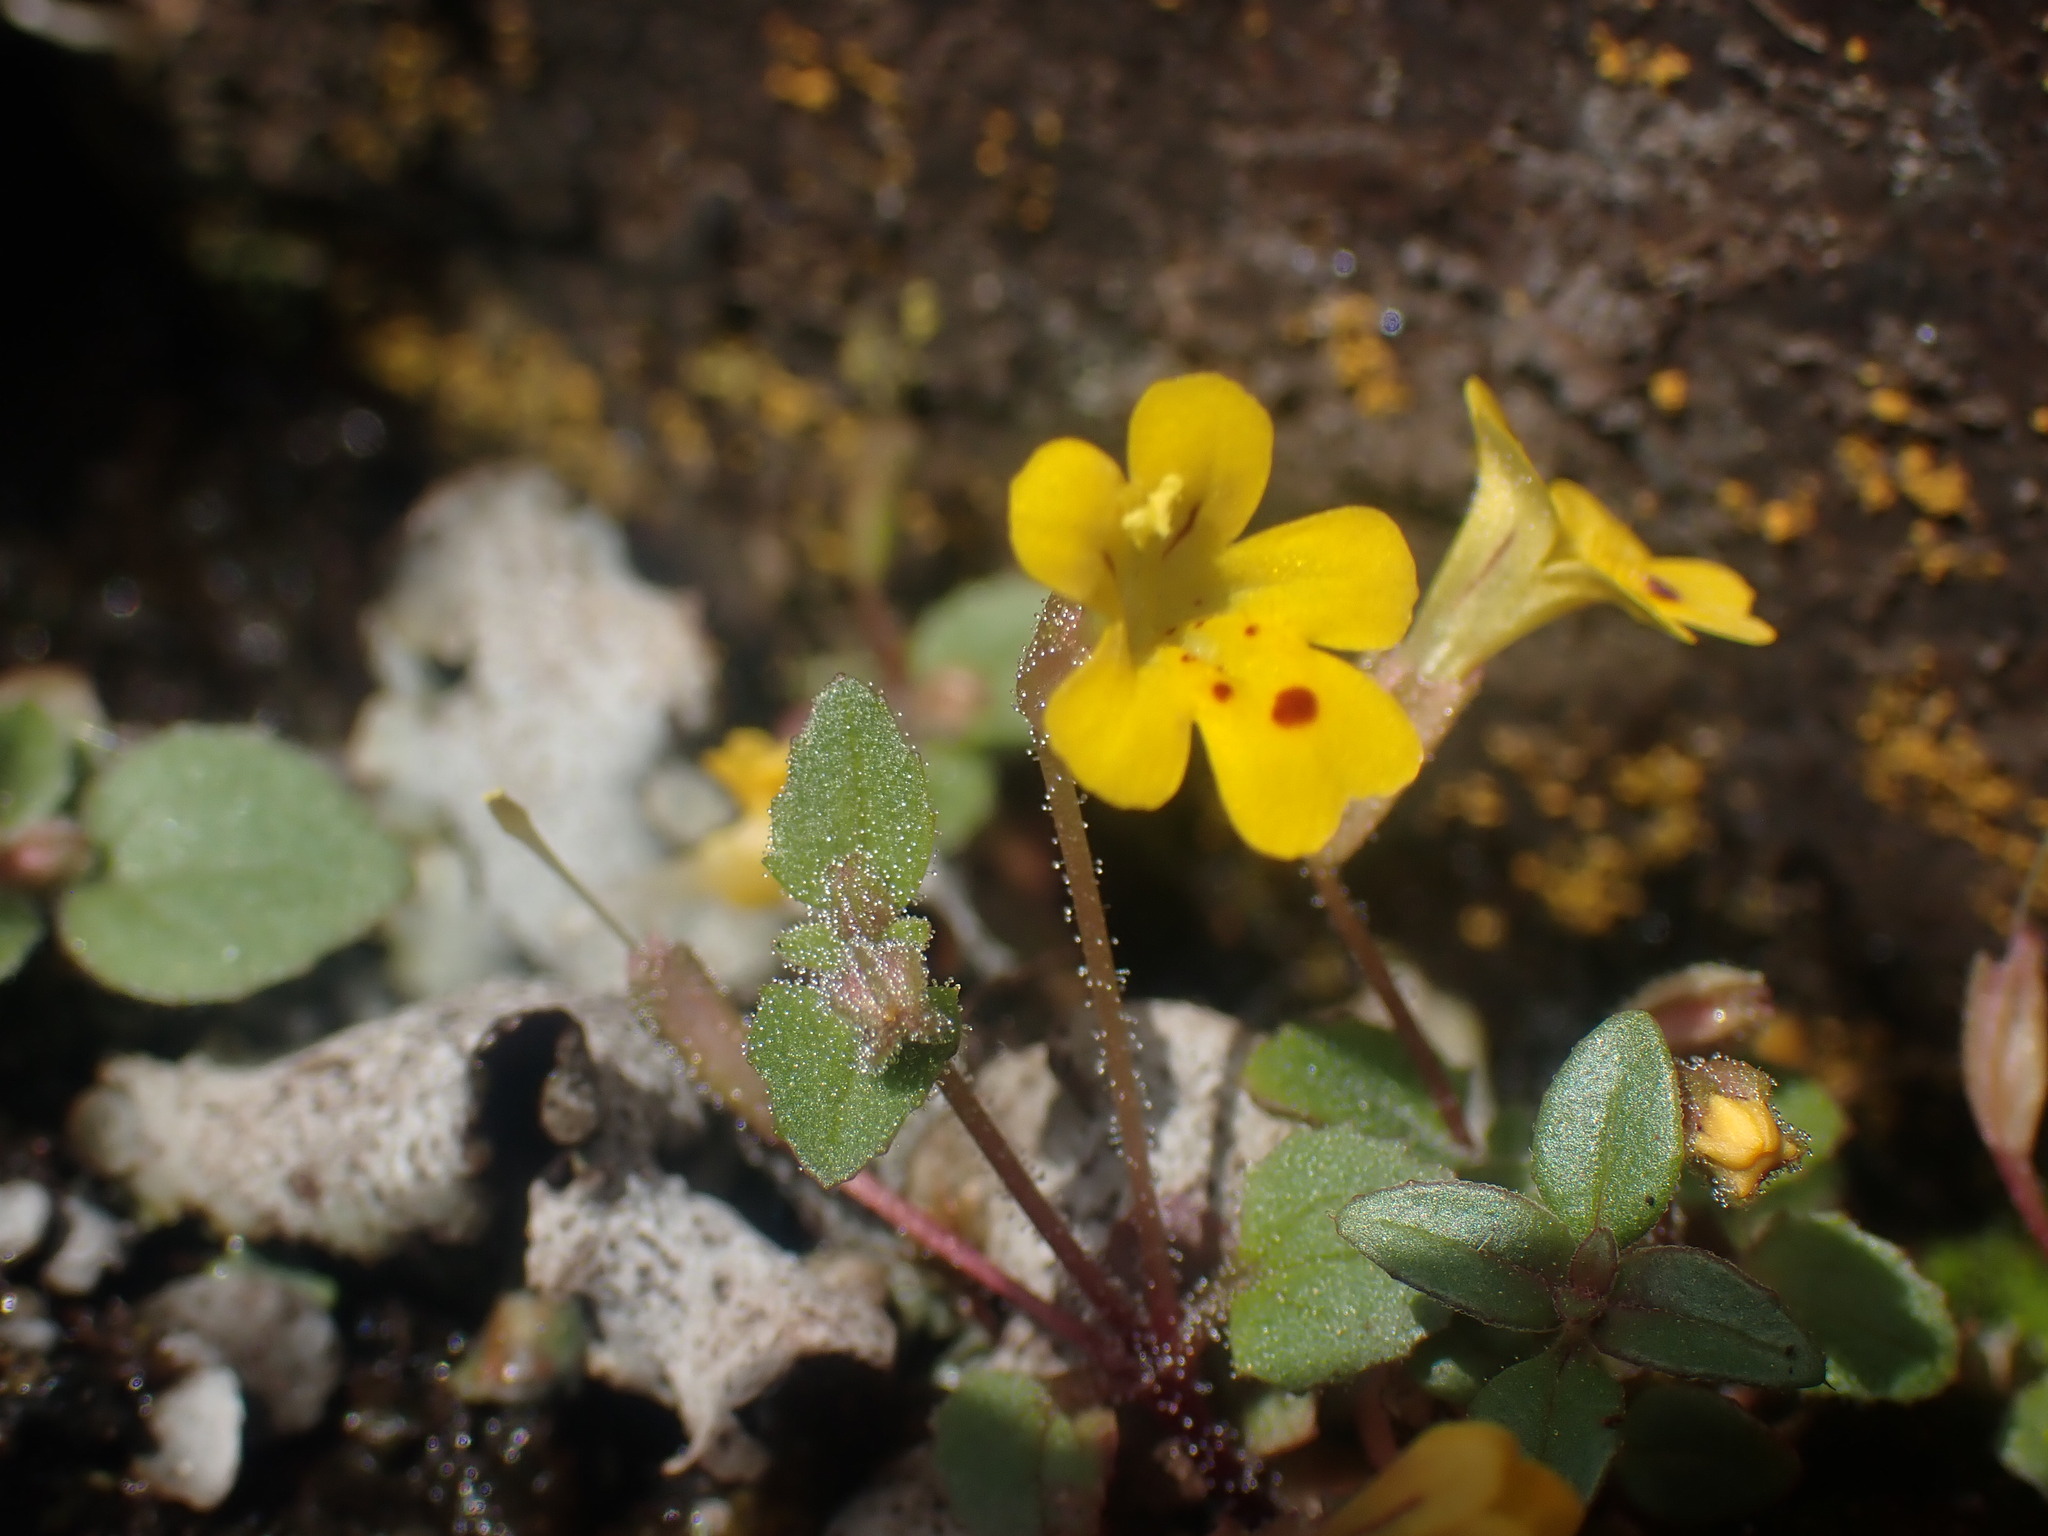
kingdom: Plantae
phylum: Tracheophyta
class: Magnoliopsida
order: Lamiales
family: Phrymaceae
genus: Erythranthe
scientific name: Erythranthe alsinoides
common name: Chickweed monkeyflower
